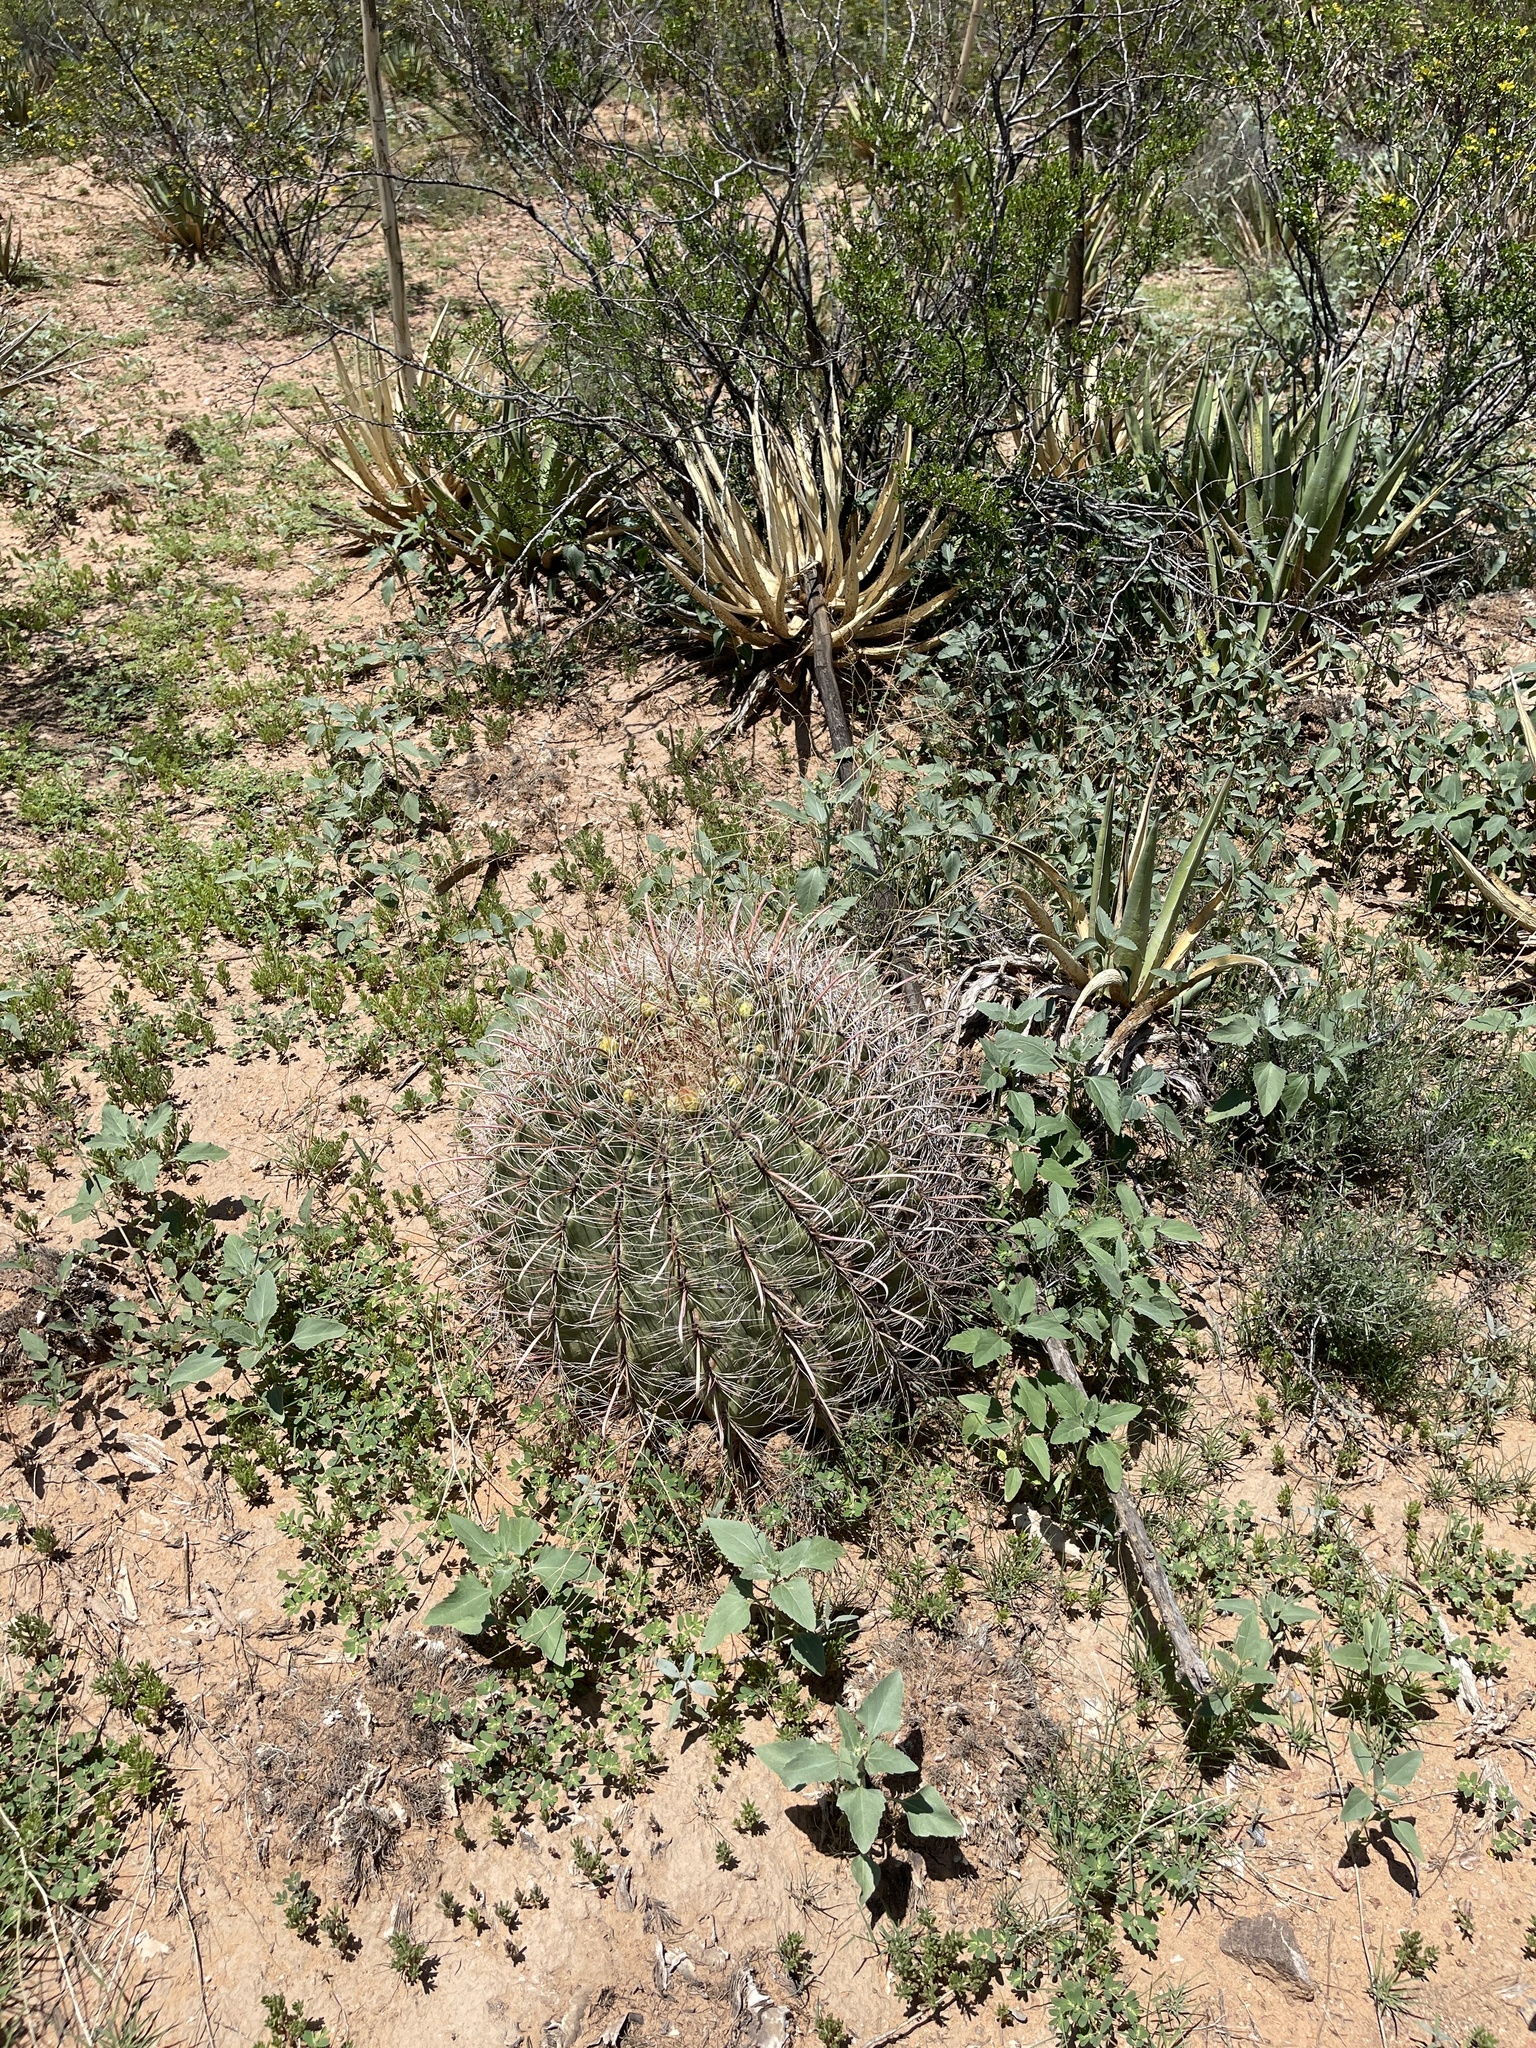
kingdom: Plantae
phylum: Tracheophyta
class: Magnoliopsida
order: Caryophyllales
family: Cactaceae
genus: Ferocactus
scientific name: Ferocactus wislizeni
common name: Candy barrel cactus
